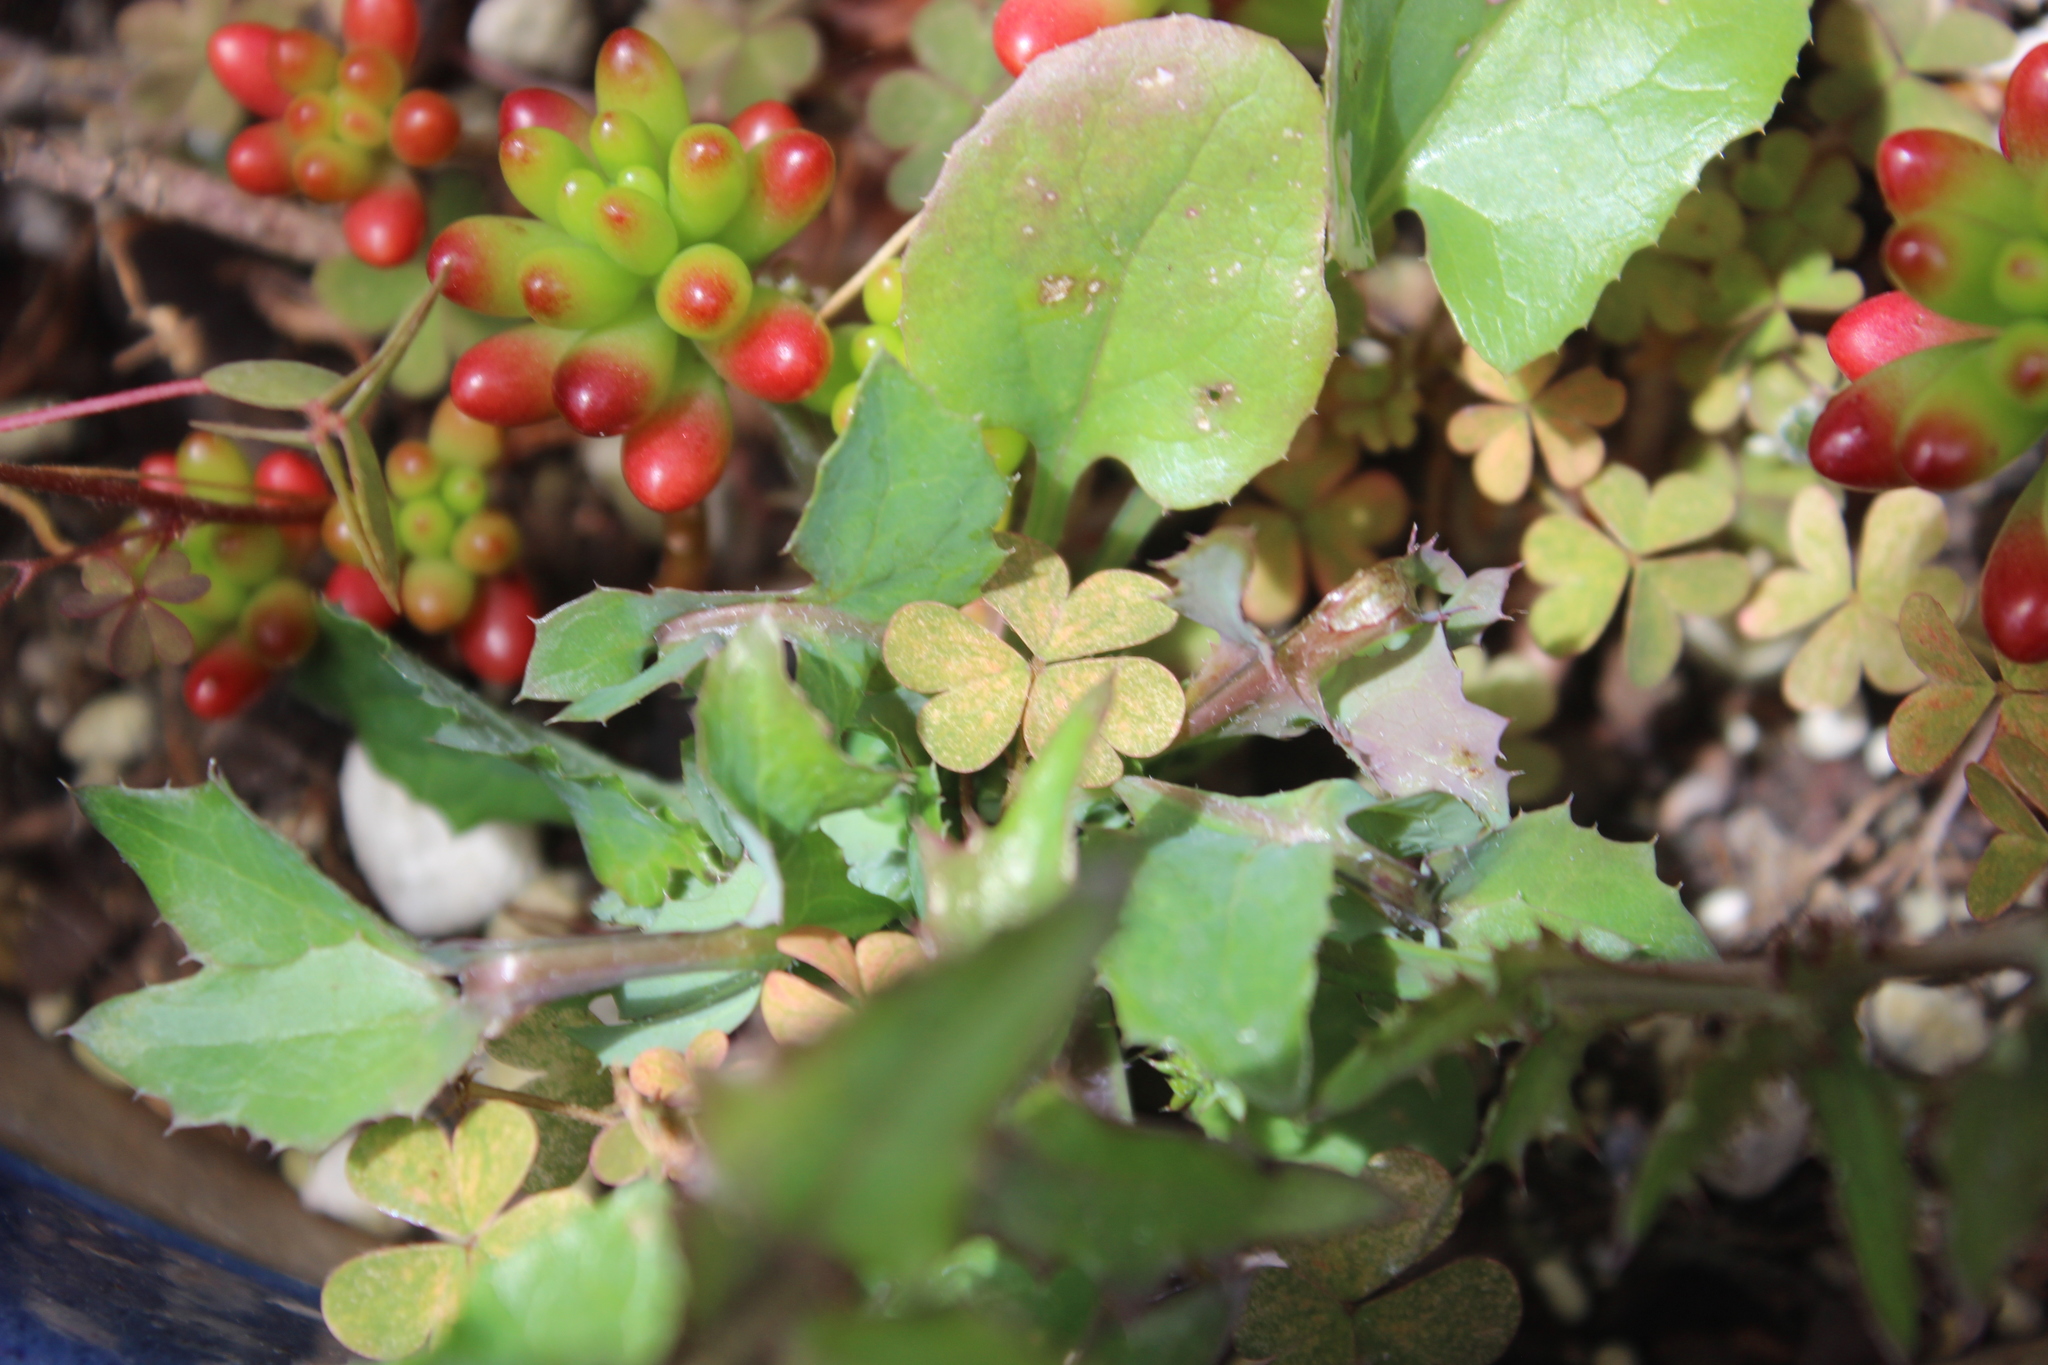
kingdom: Plantae
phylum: Tracheophyta
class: Magnoliopsida
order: Asterales
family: Asteraceae
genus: Sonchus
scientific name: Sonchus oleraceus
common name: Common sowthistle
